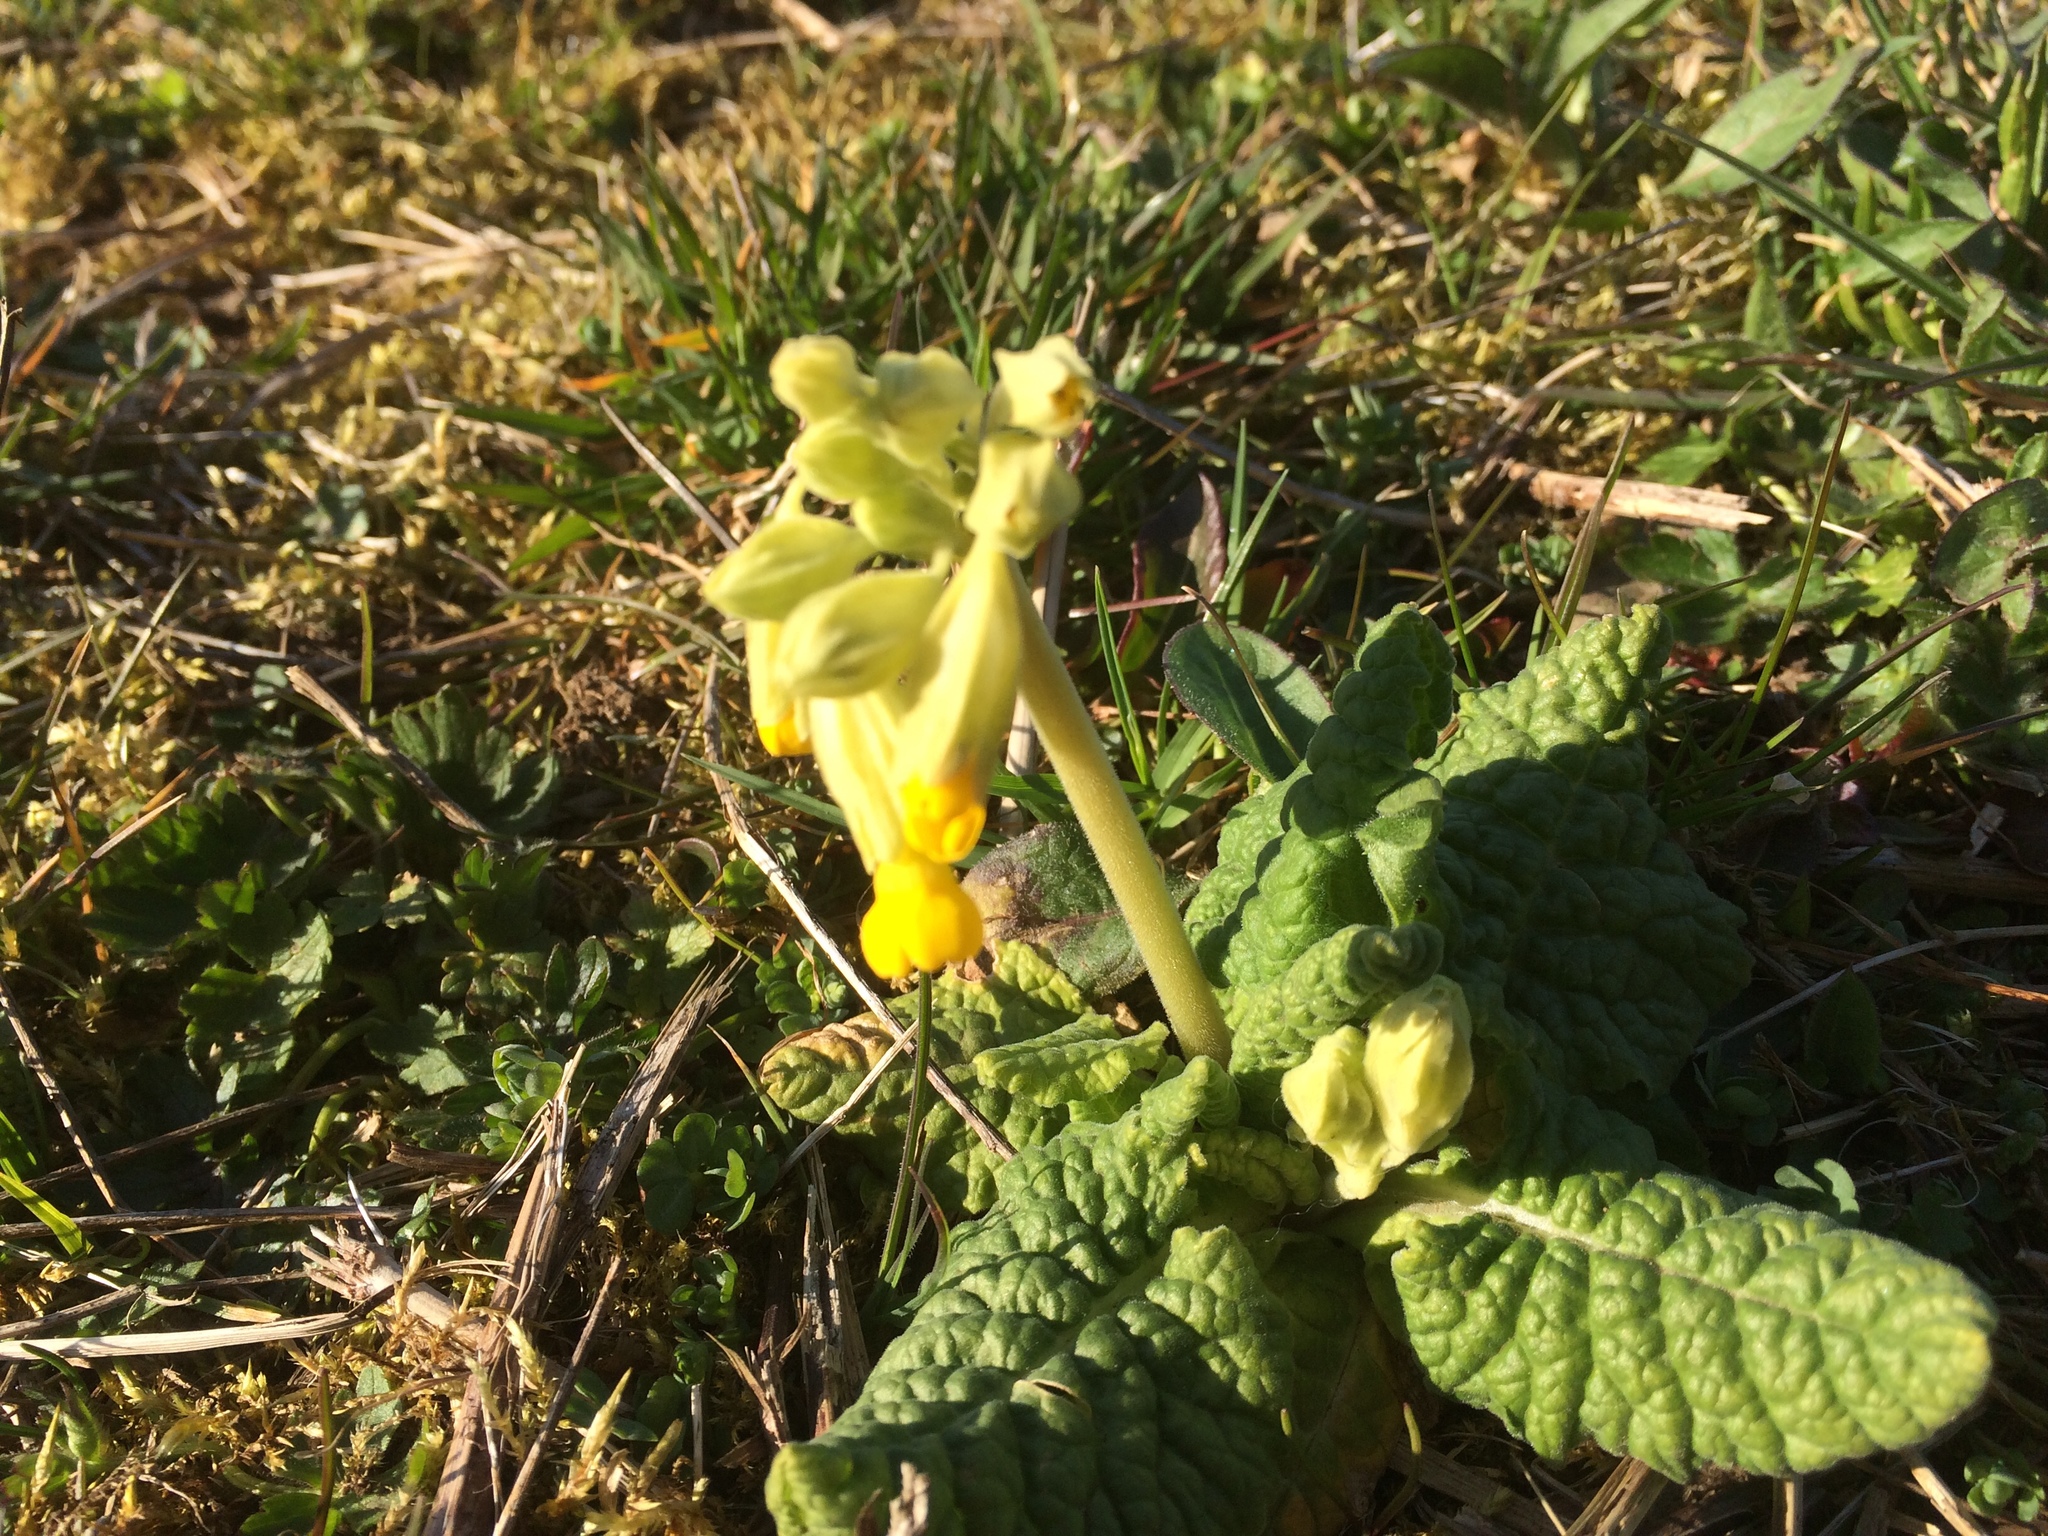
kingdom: Plantae
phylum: Tracheophyta
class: Magnoliopsida
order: Ericales
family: Primulaceae
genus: Primula
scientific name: Primula veris
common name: Cowslip
